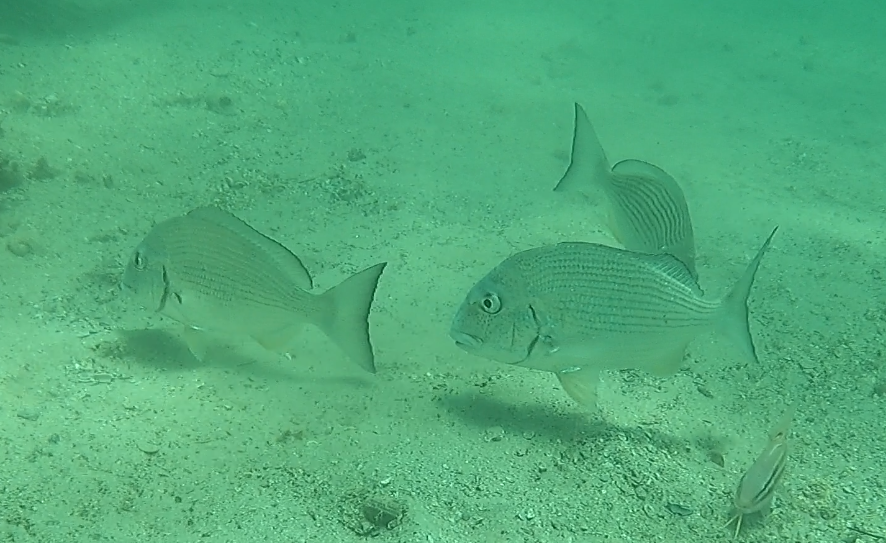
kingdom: Animalia
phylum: Chordata
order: Perciformes
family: Sparidae
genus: Rhabdosargus
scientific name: Rhabdosargus sarba
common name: Goldlined seabream
